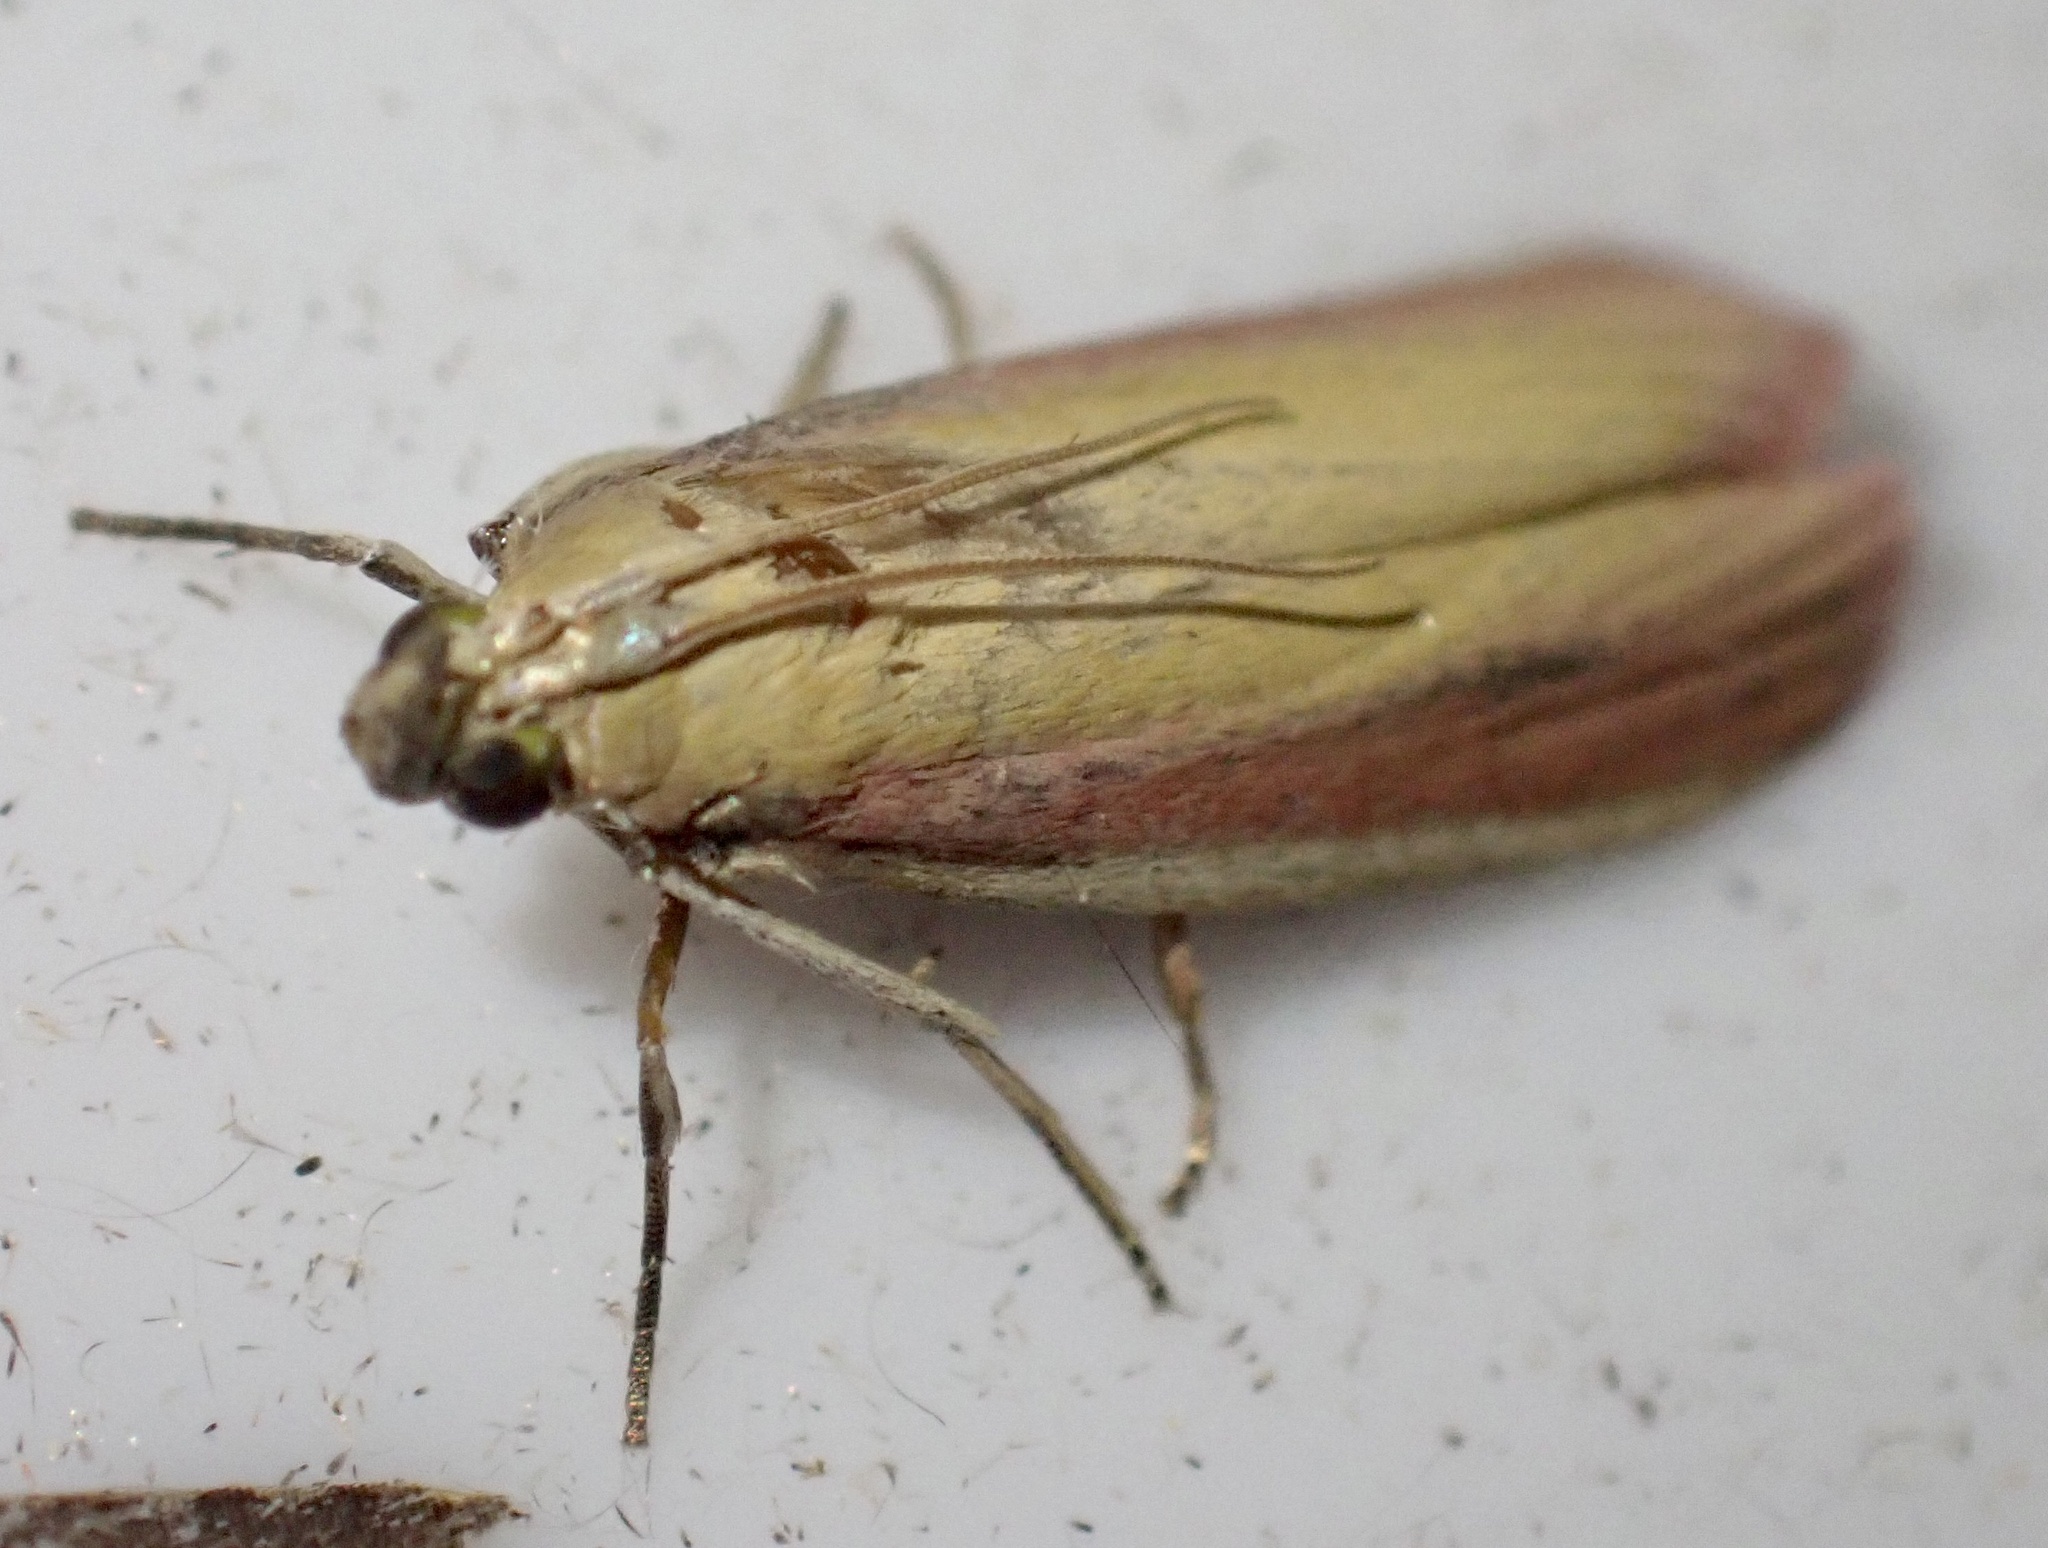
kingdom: Animalia
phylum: Arthropoda
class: Insecta
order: Lepidoptera
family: Pyralidae
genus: Oncocera
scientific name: Oncocera semirubella
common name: Rosy-striped knot-horn
